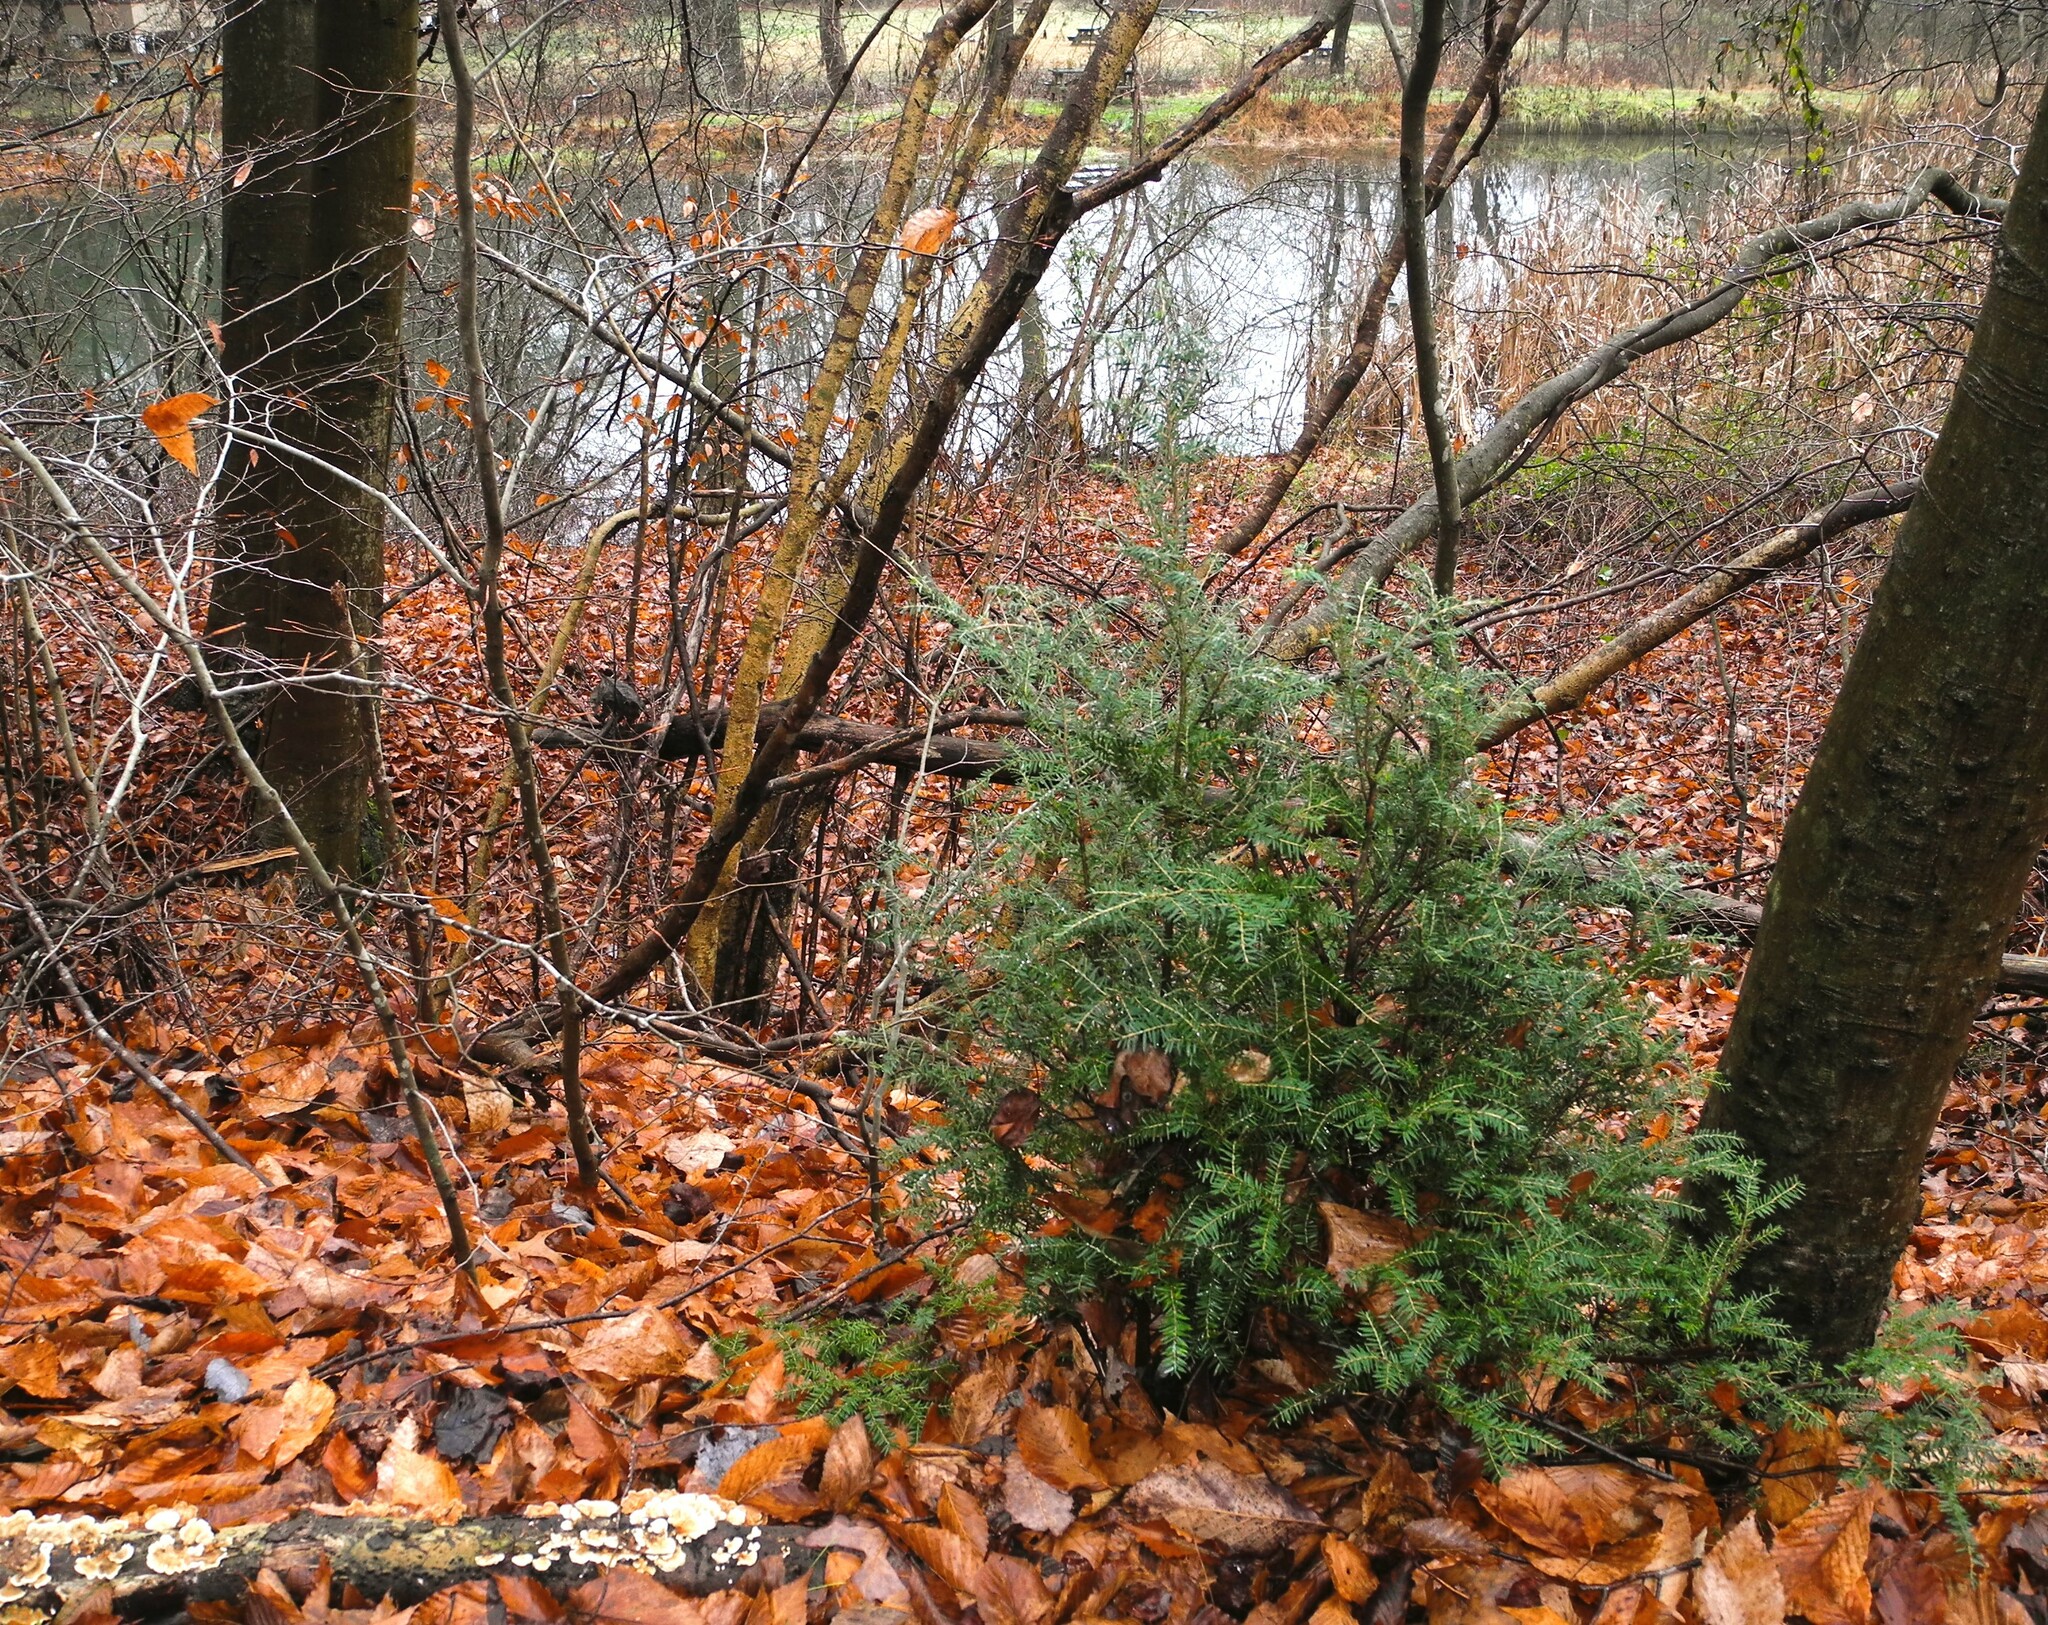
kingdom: Plantae
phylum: Tracheophyta
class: Pinopsida
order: Pinales
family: Pinaceae
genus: Tsuga
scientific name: Tsuga canadensis
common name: Eastern hemlock
